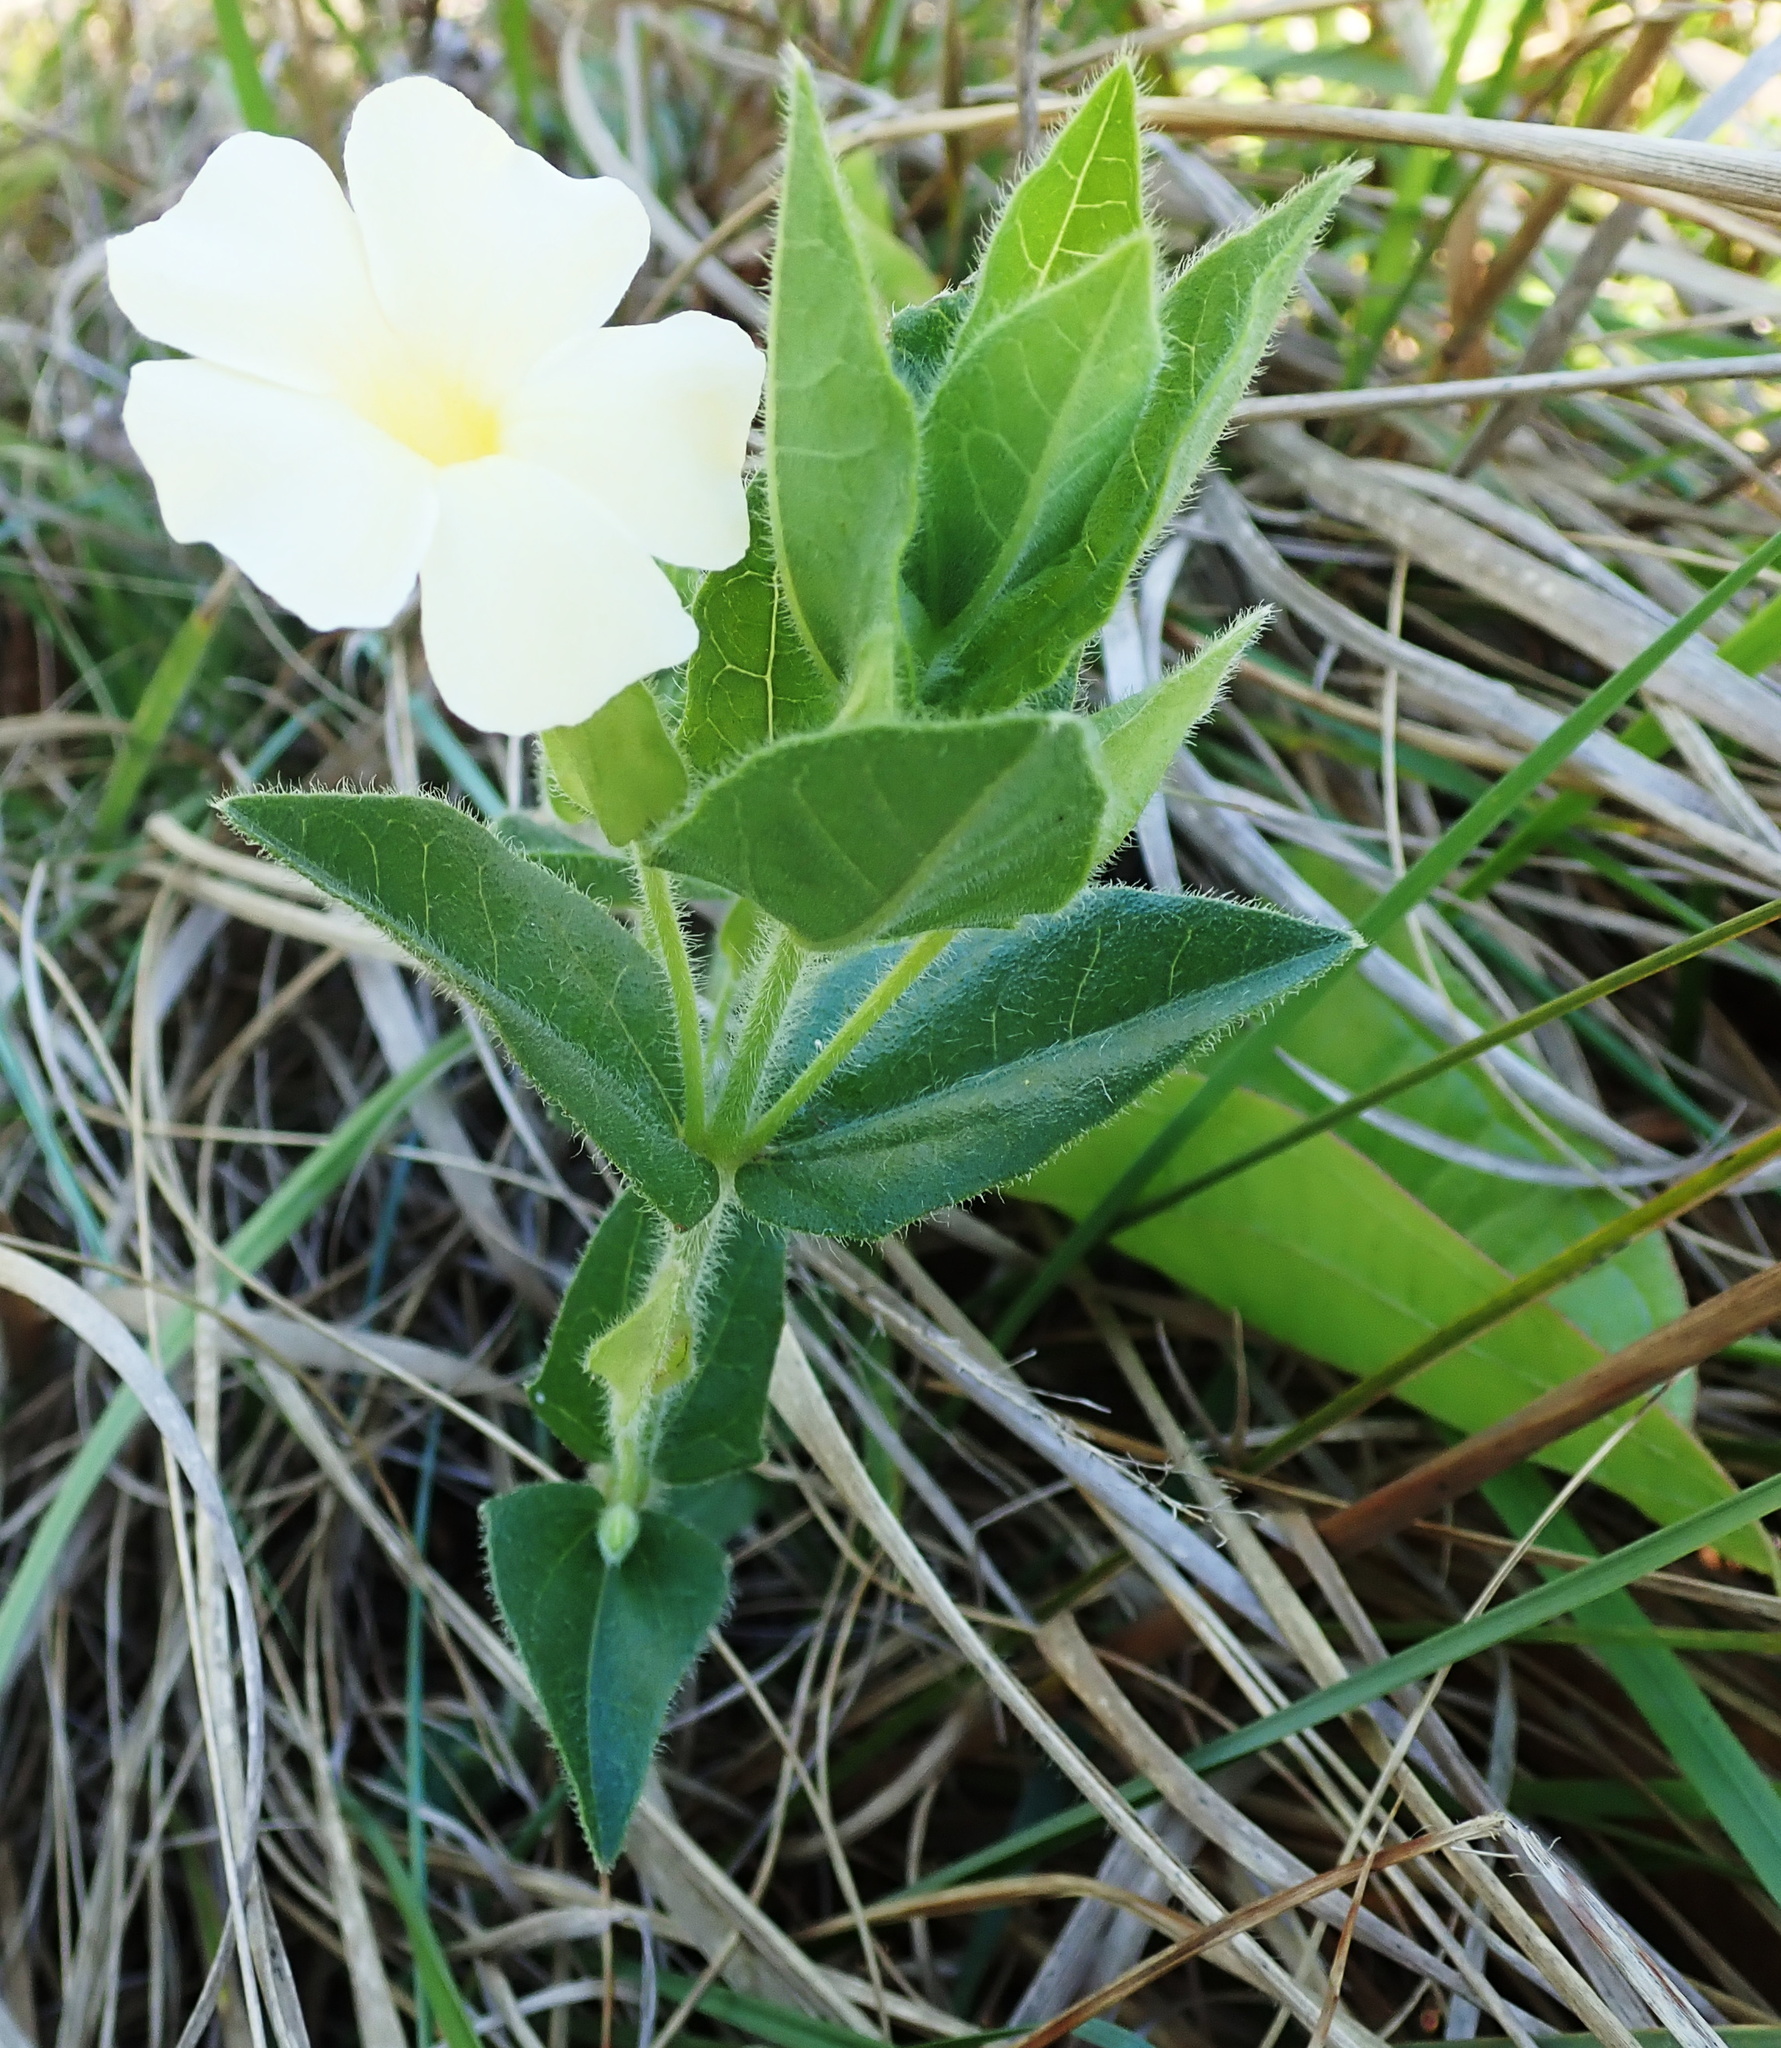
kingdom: Plantae
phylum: Tracheophyta
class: Magnoliopsida
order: Lamiales
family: Acanthaceae
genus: Thunbergia
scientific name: Thunbergia atriplicifolia
